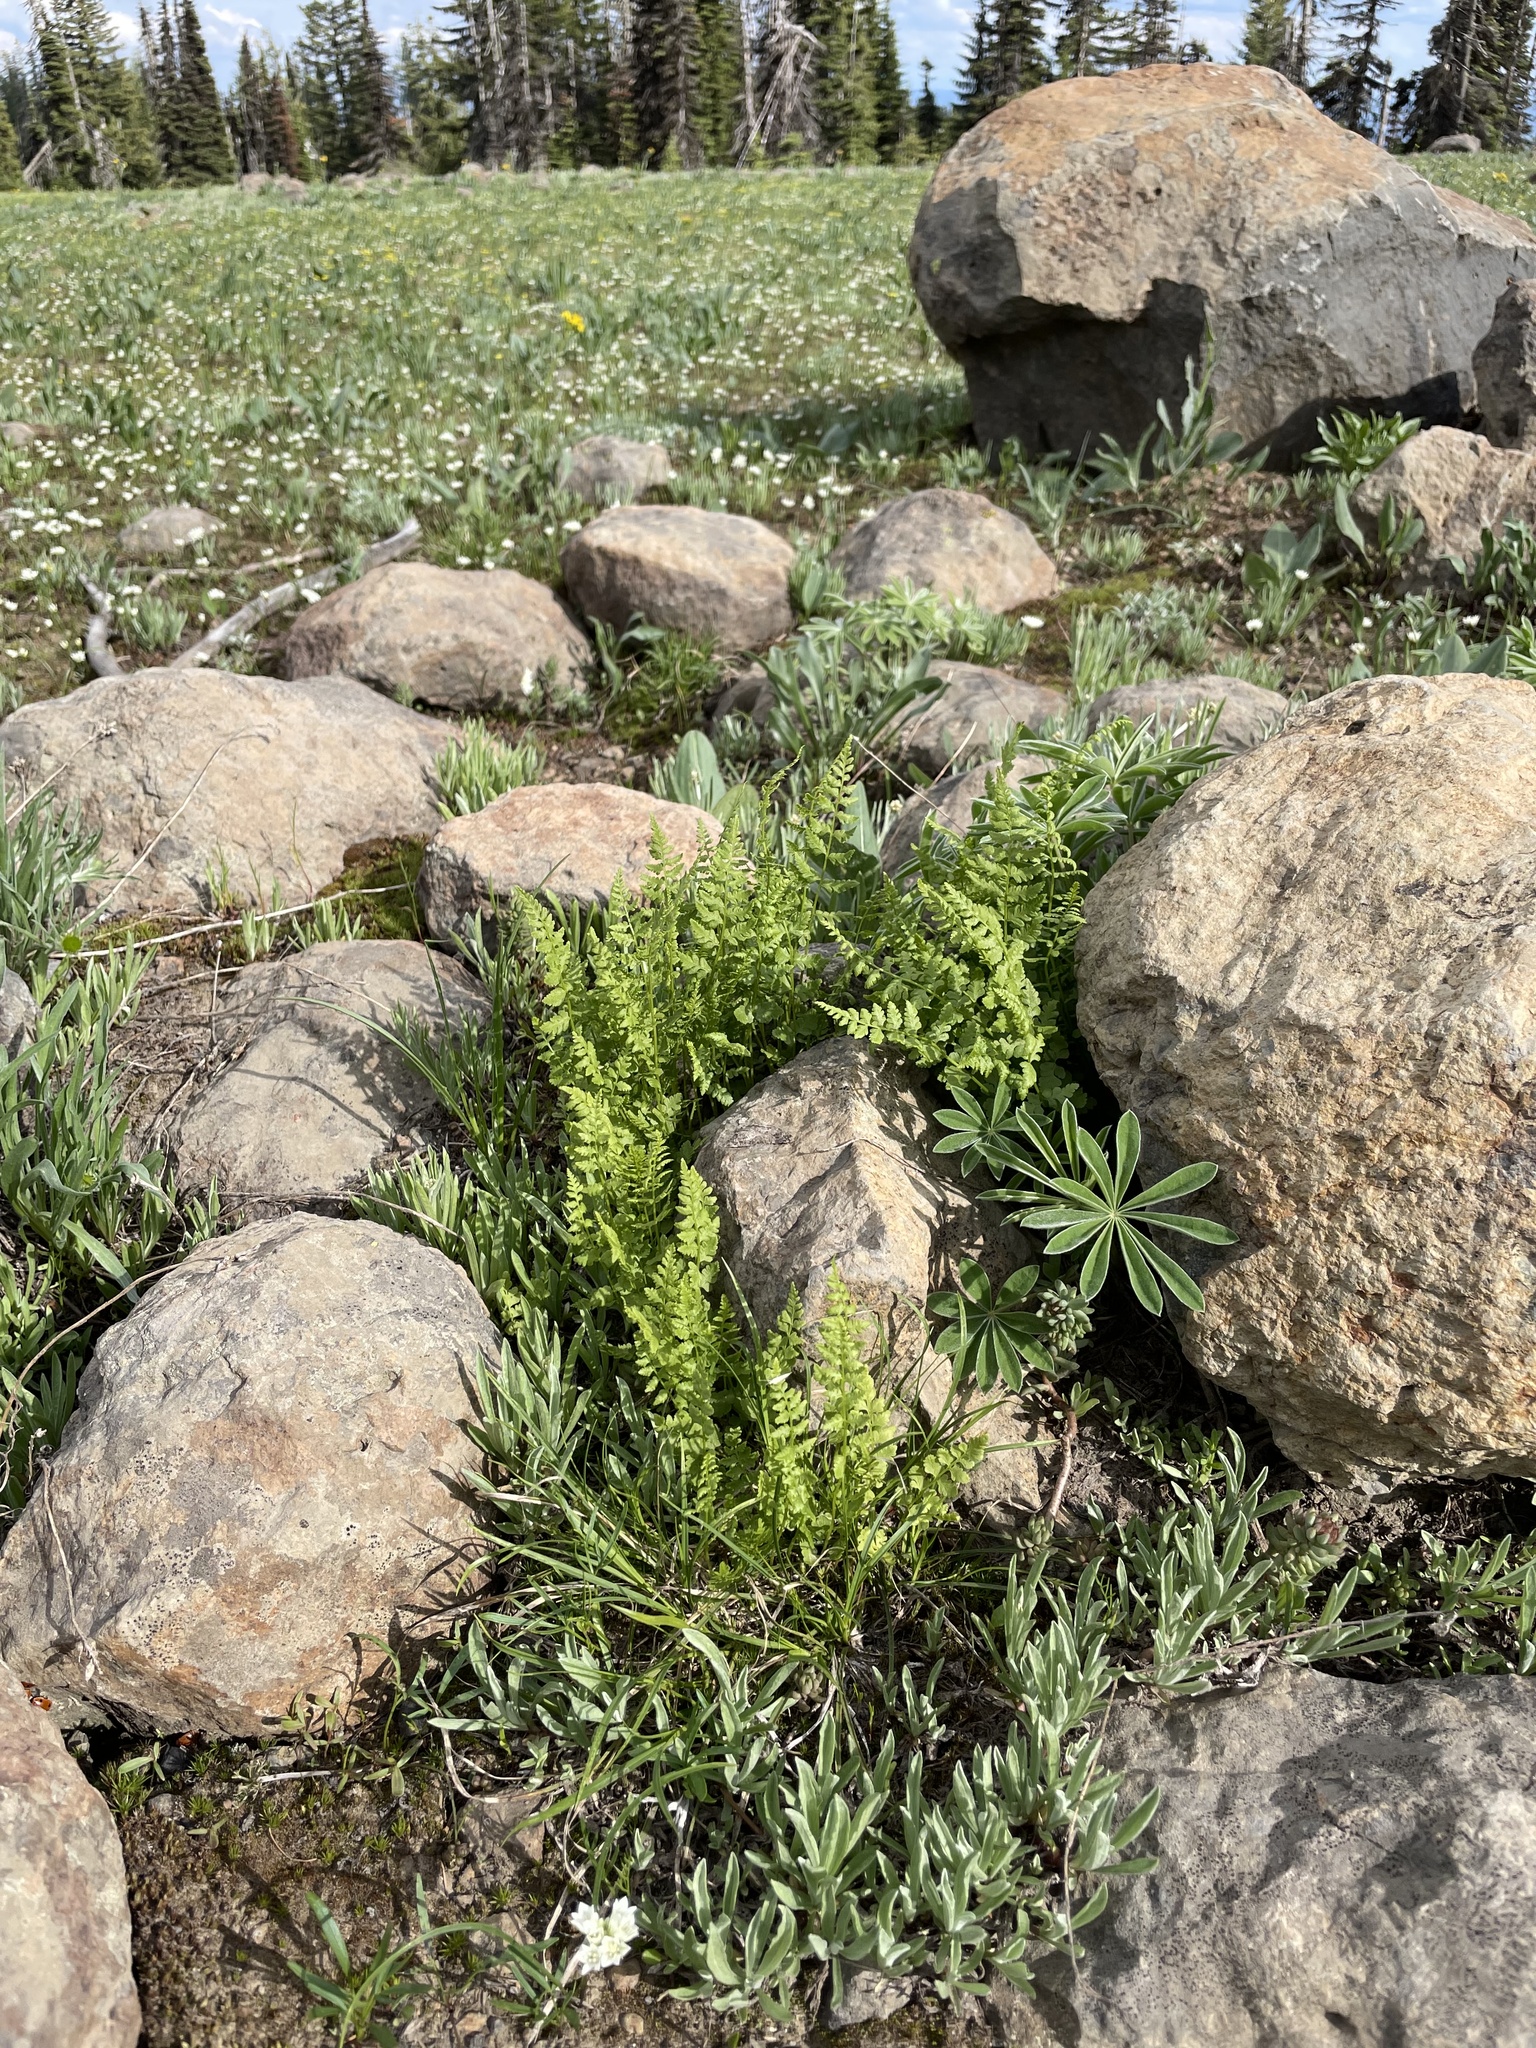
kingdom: Plantae
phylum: Tracheophyta
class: Polypodiopsida
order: Polypodiales
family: Cystopteridaceae
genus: Cystopteris
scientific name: Cystopteris fragilis
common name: Brittle bladder fern
